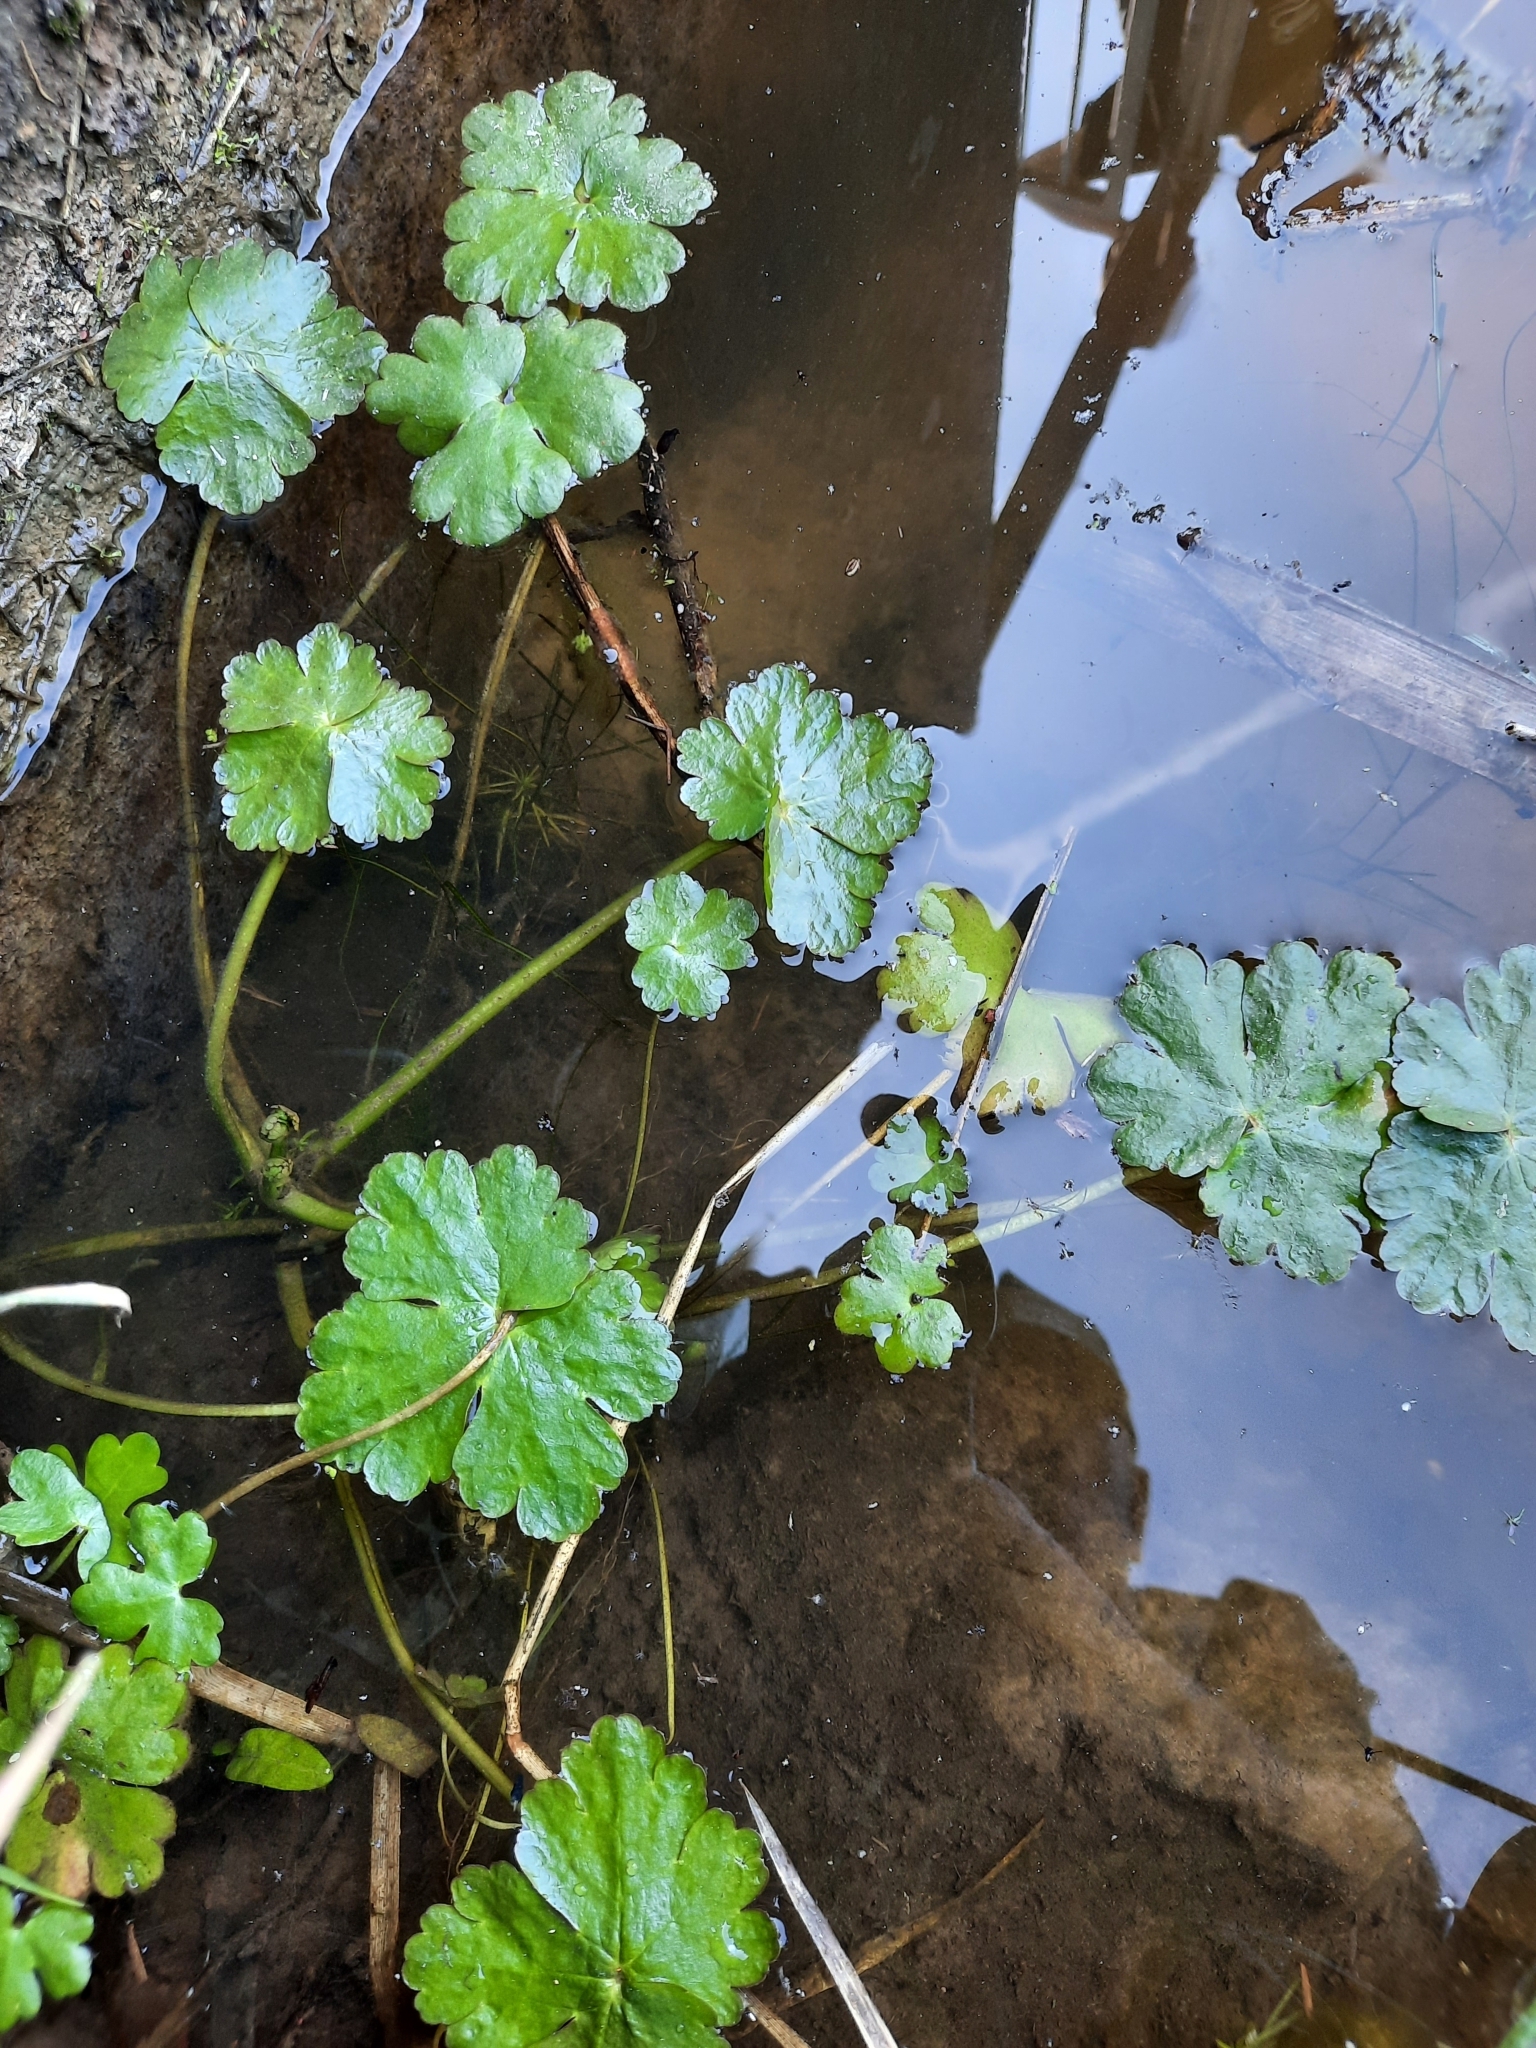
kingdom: Plantae
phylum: Tracheophyta
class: Magnoliopsida
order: Ranunculales
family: Ranunculaceae
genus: Ranunculus
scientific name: Ranunculus sceleratus
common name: Celery-leaved buttercup
